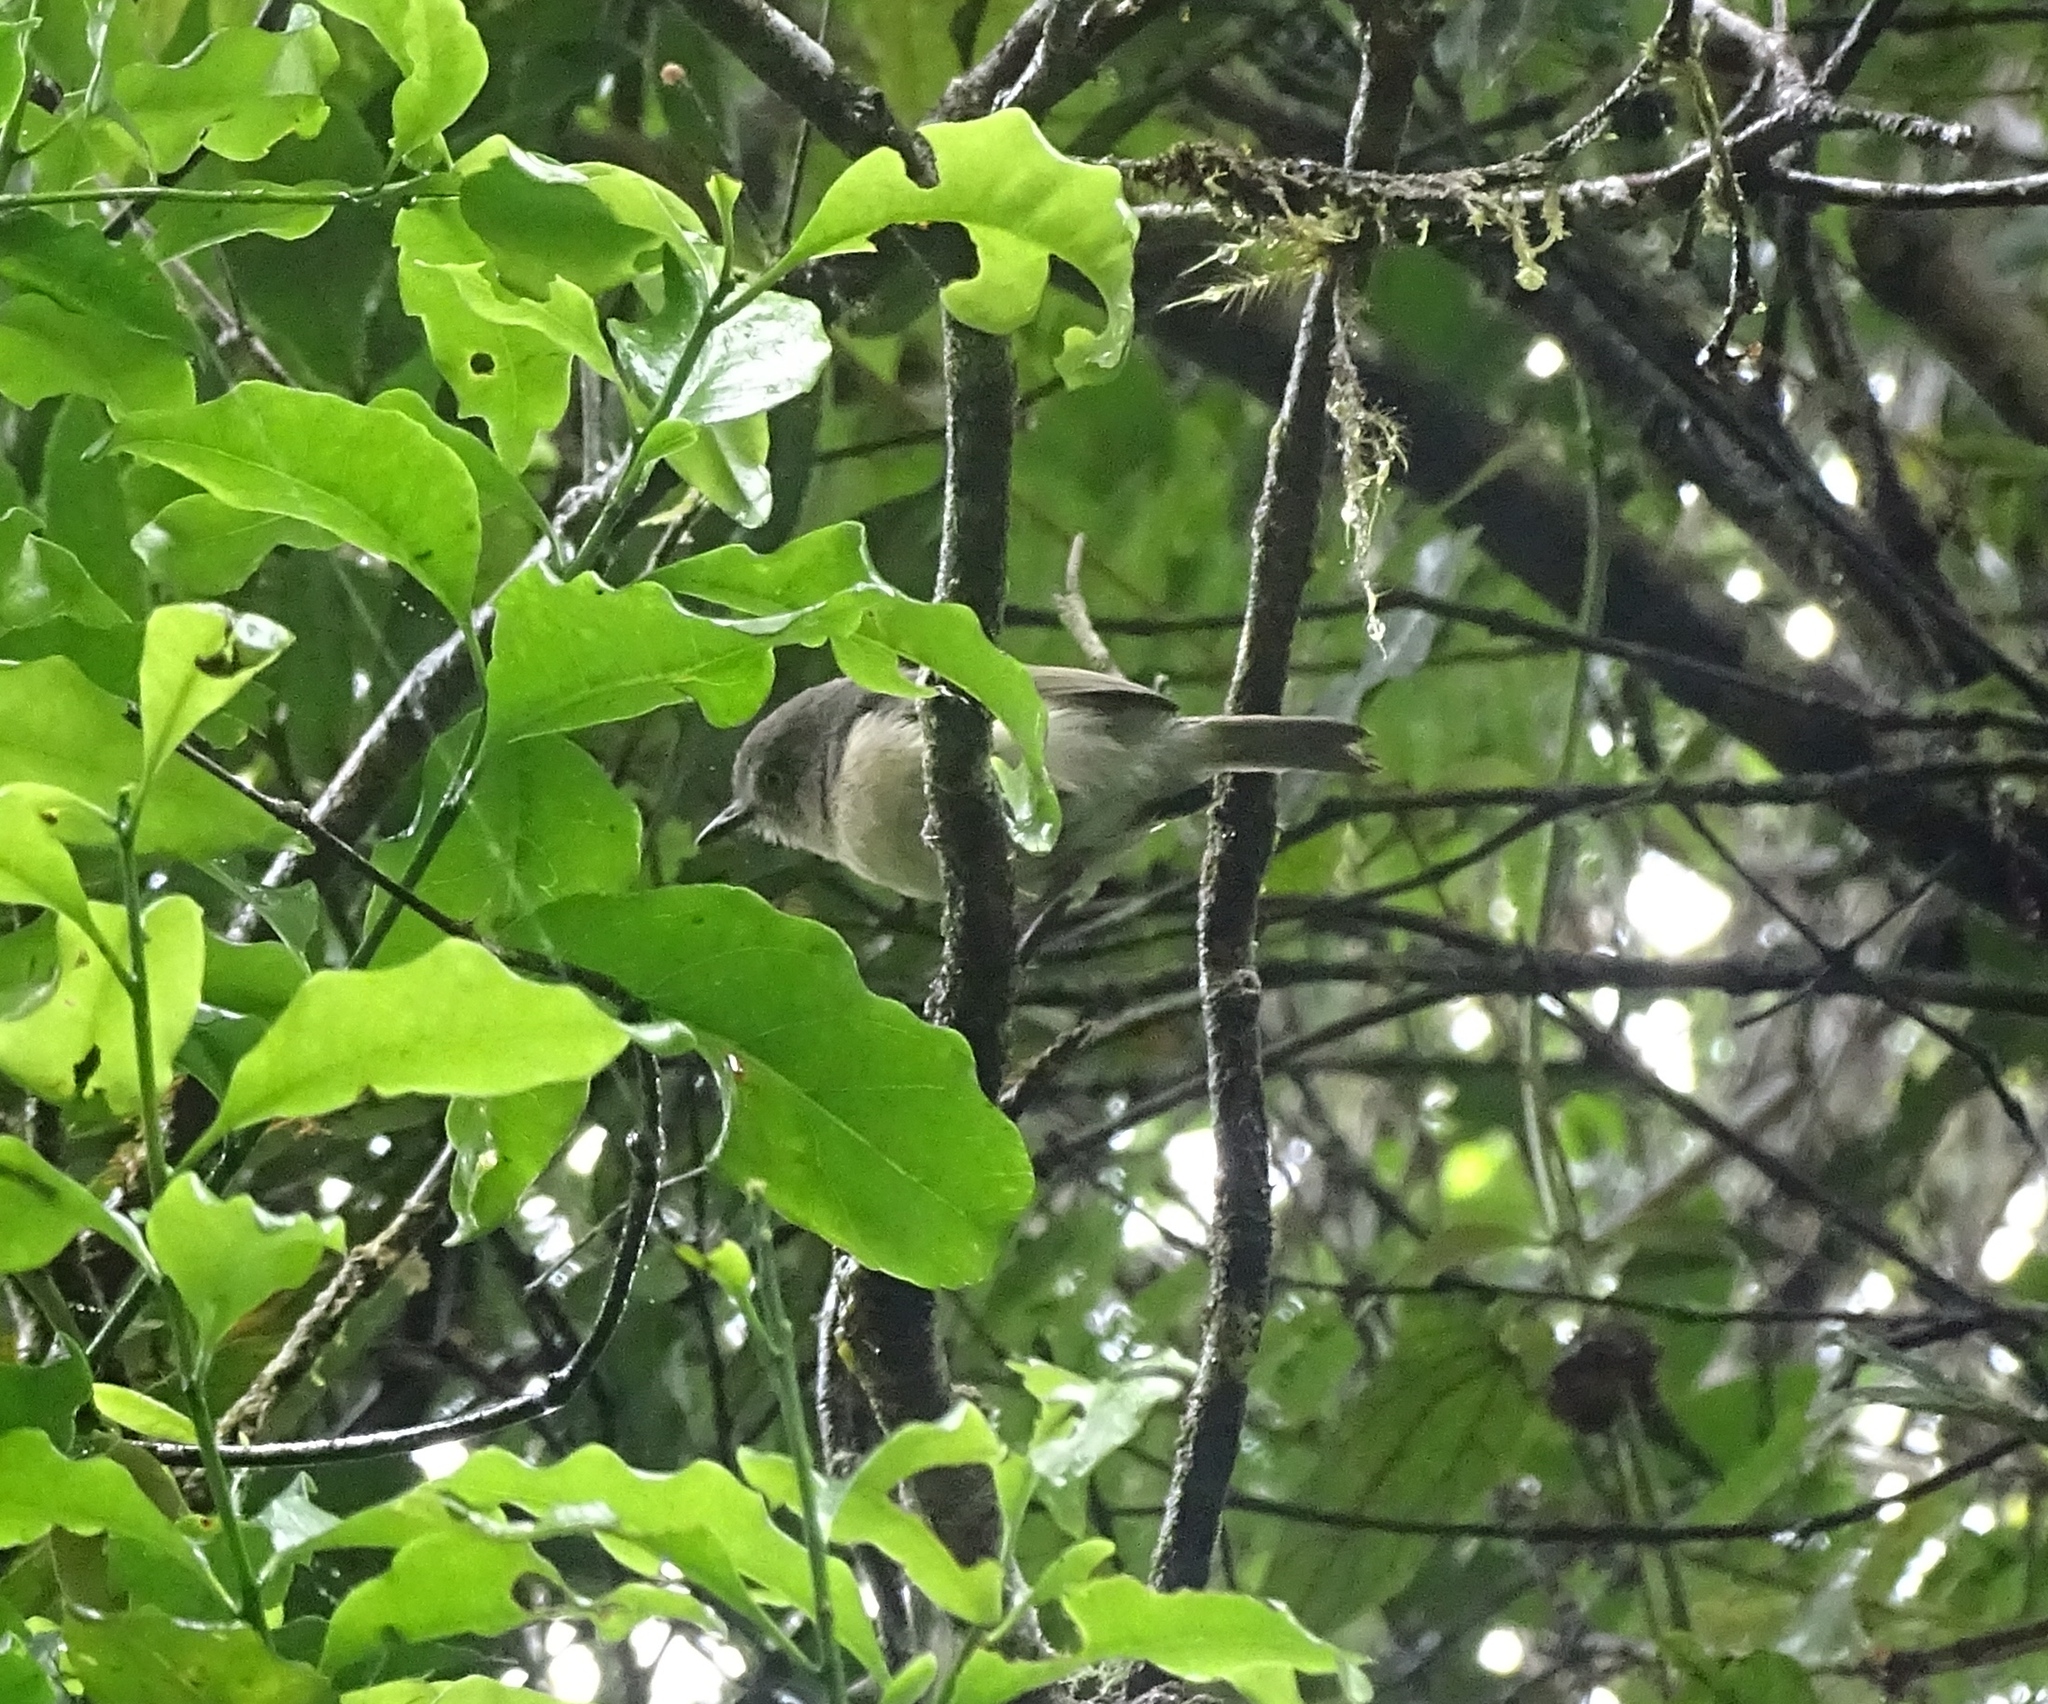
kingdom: Animalia
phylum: Chordata
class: Aves
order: Passeriformes
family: Vangidae
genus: Newtonia
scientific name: Newtonia brunneicauda
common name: Common newtonia
